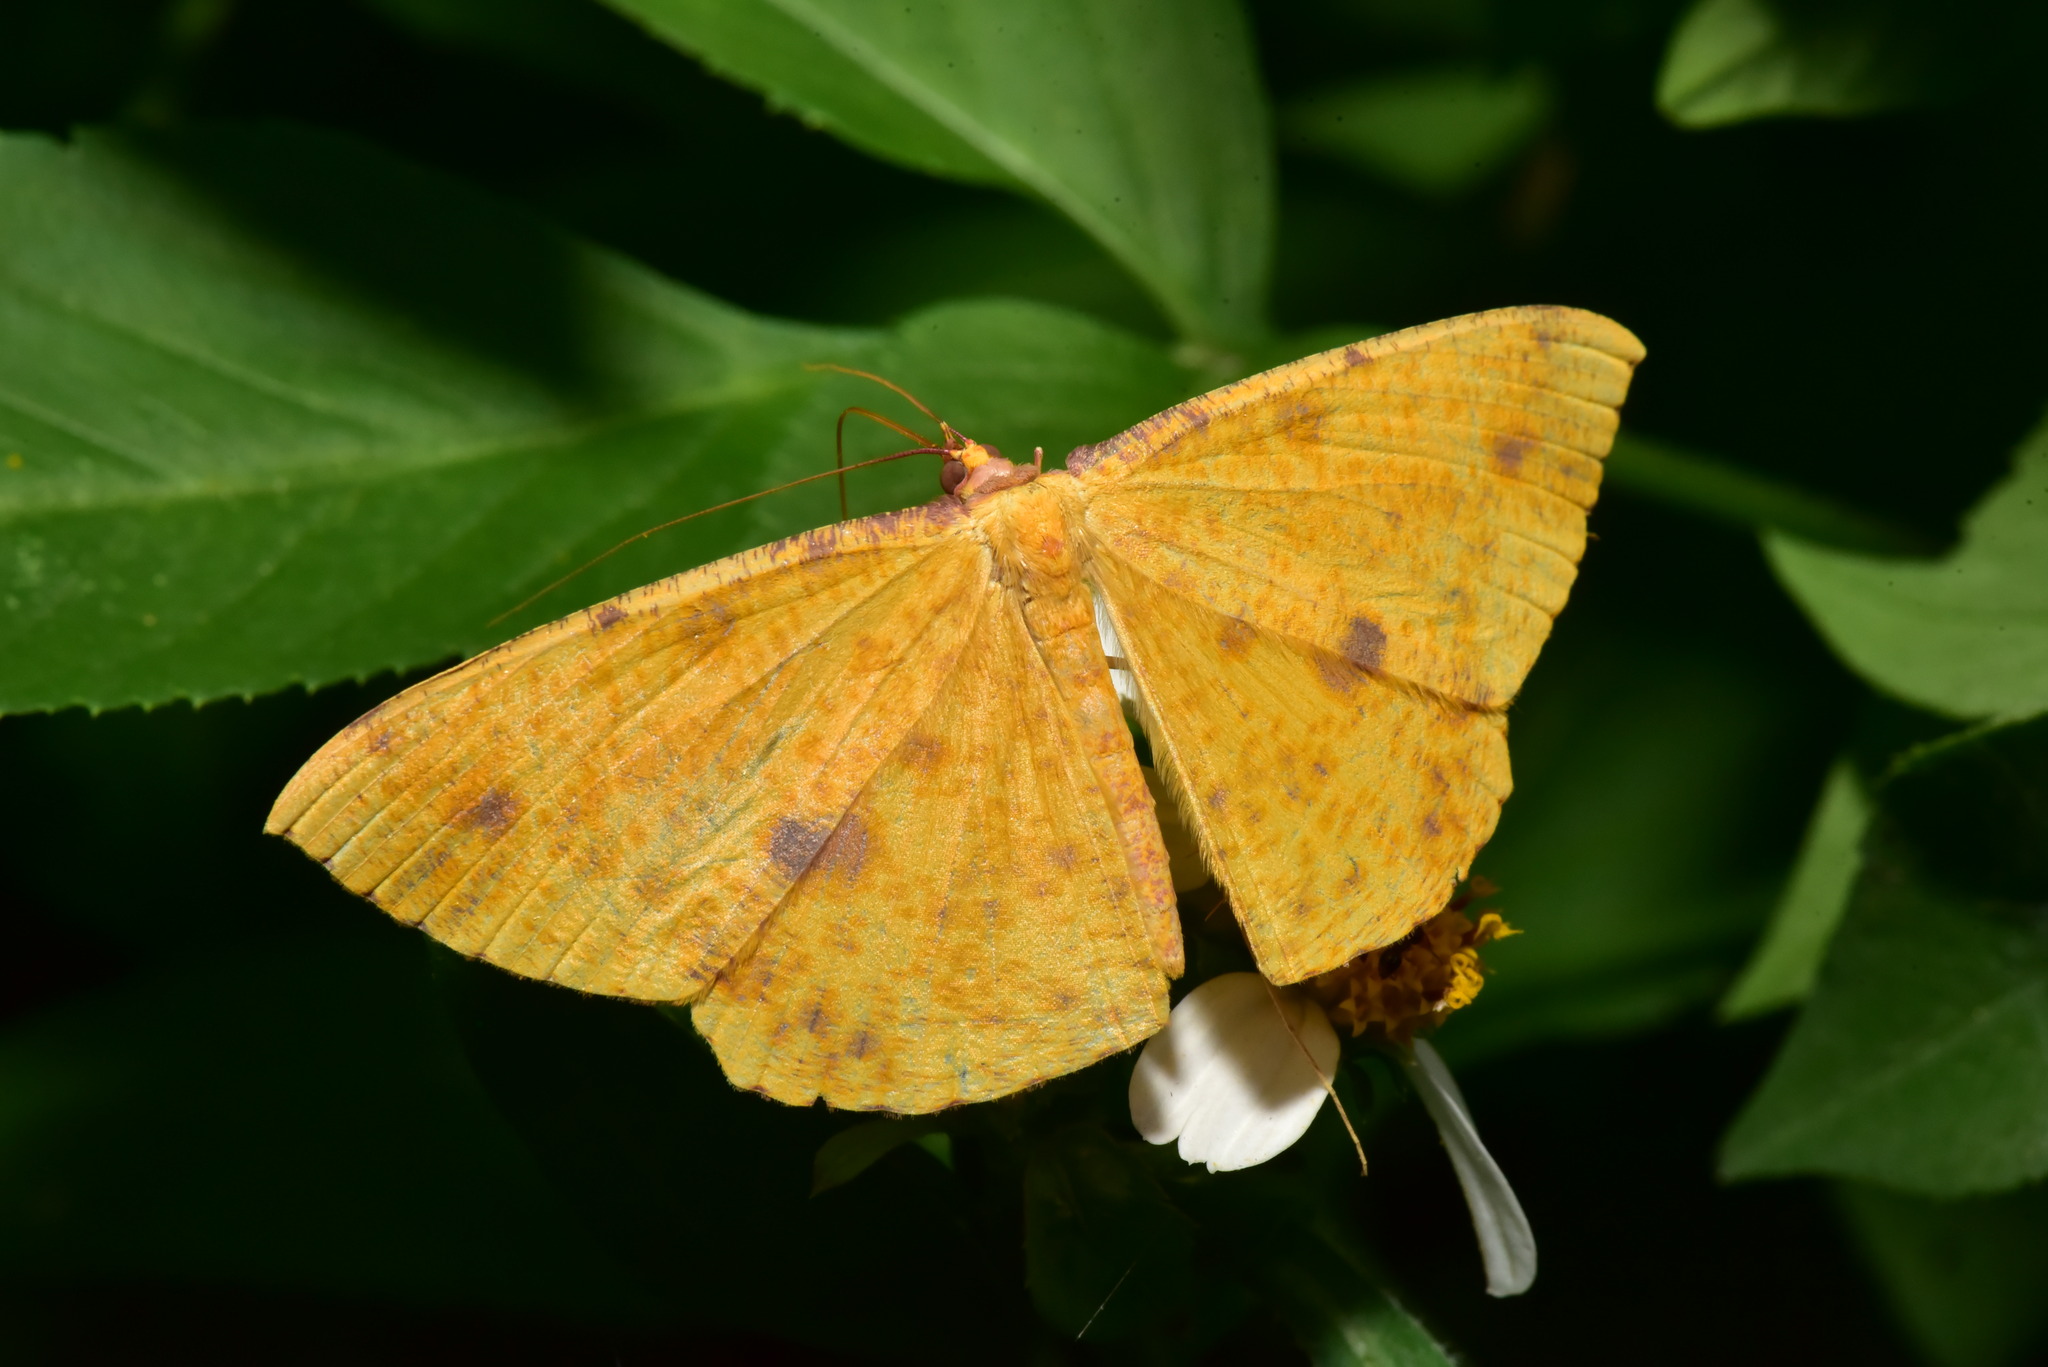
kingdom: Animalia
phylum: Arthropoda
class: Insecta
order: Lepidoptera
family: Geometridae
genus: Eumelea
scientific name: Eumelea ludovicata
